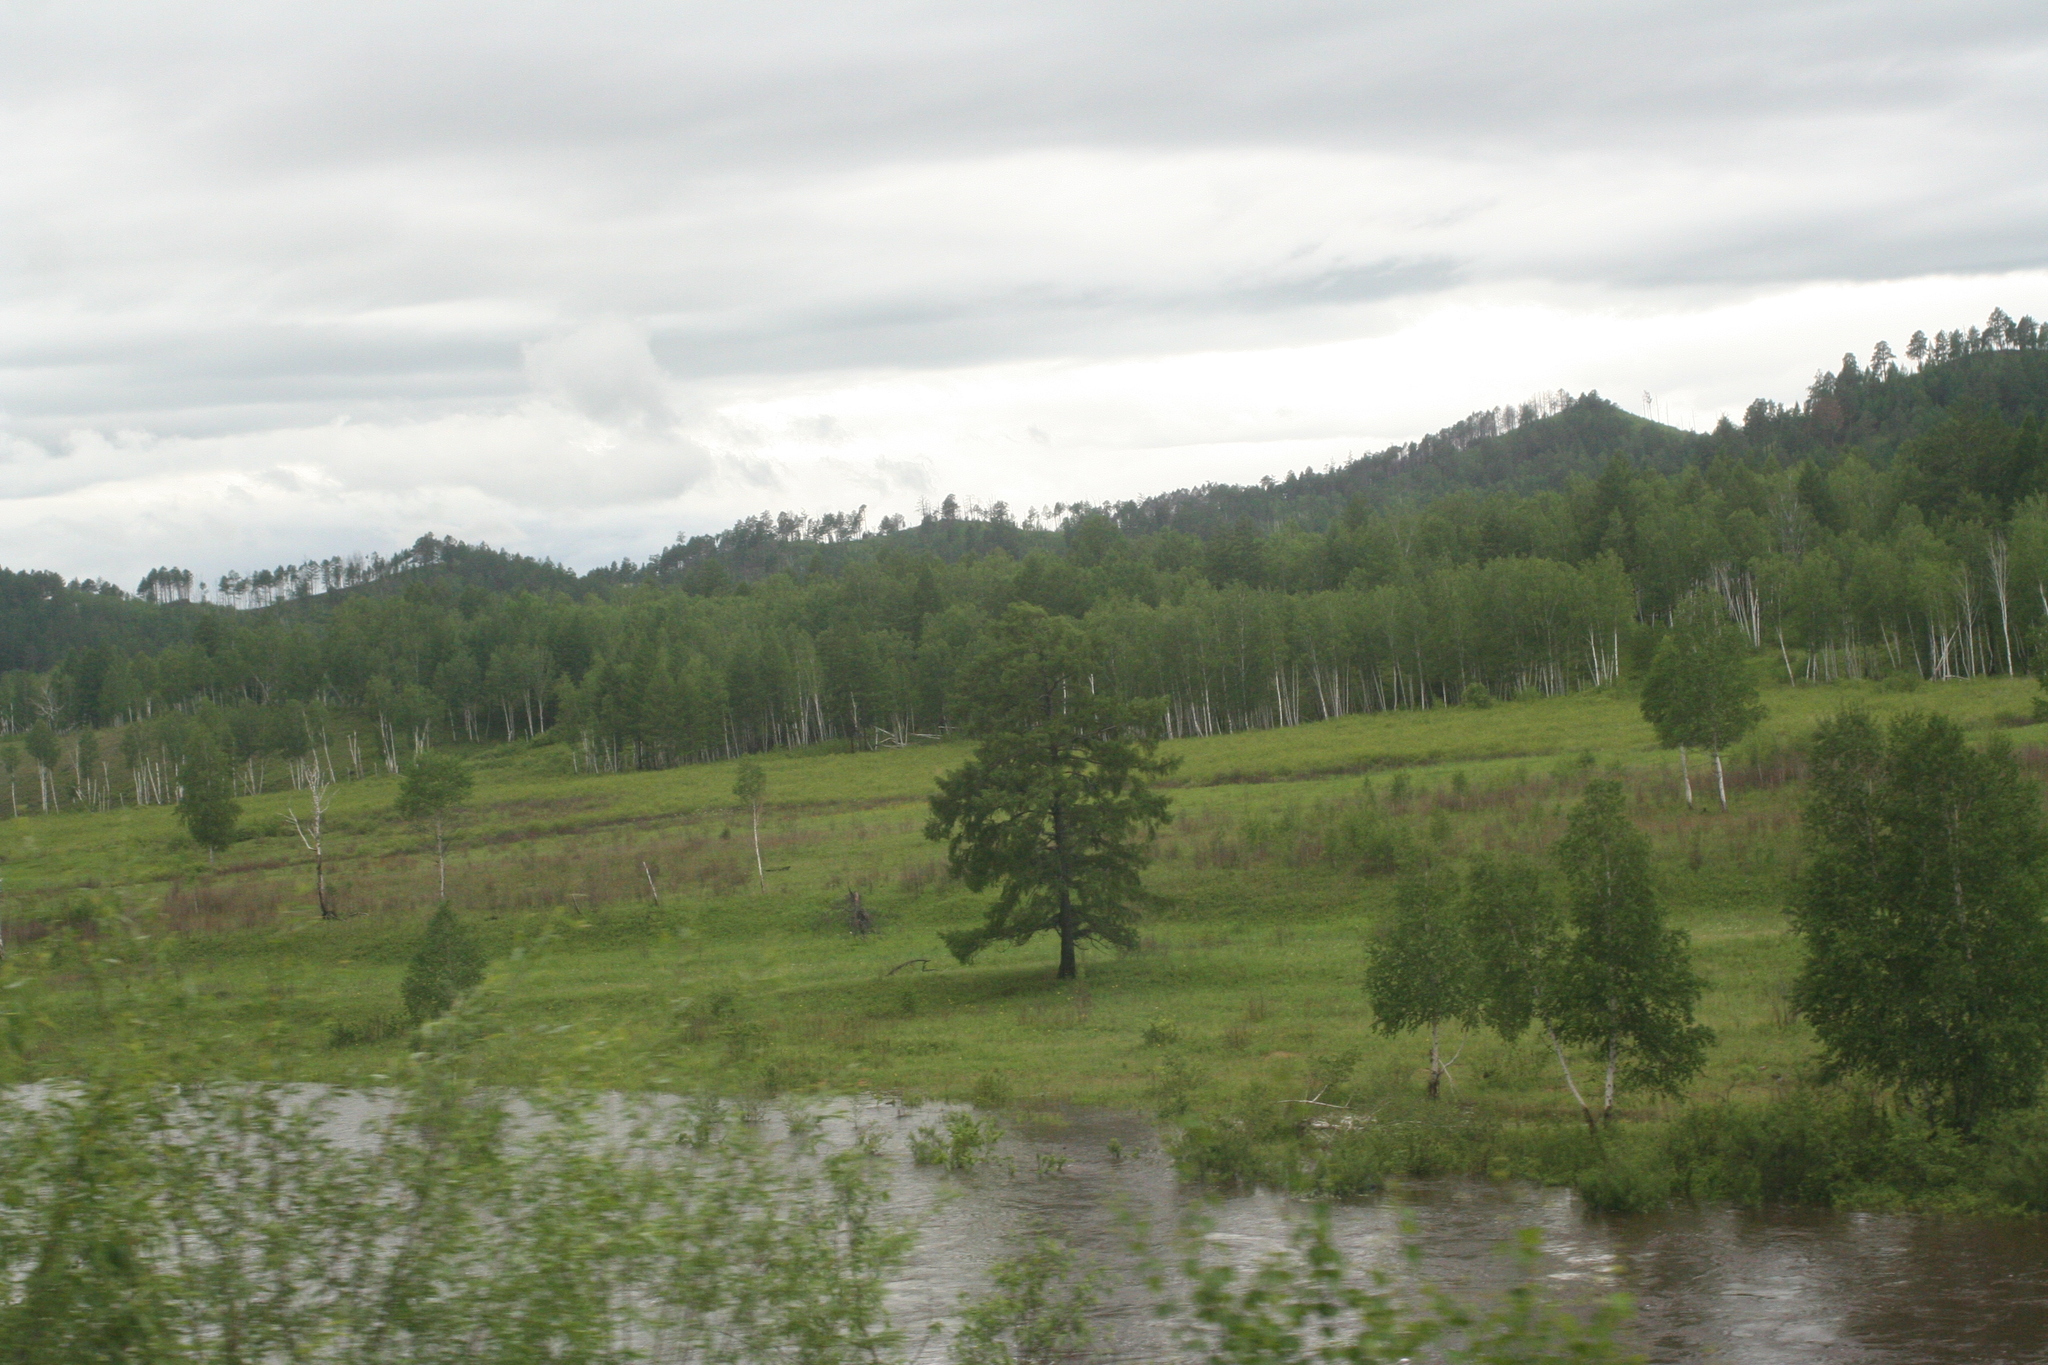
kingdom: Plantae
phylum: Tracheophyta
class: Pinopsida
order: Pinales
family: Pinaceae
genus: Larix
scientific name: Larix gmelinii
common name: Dahurian larch
